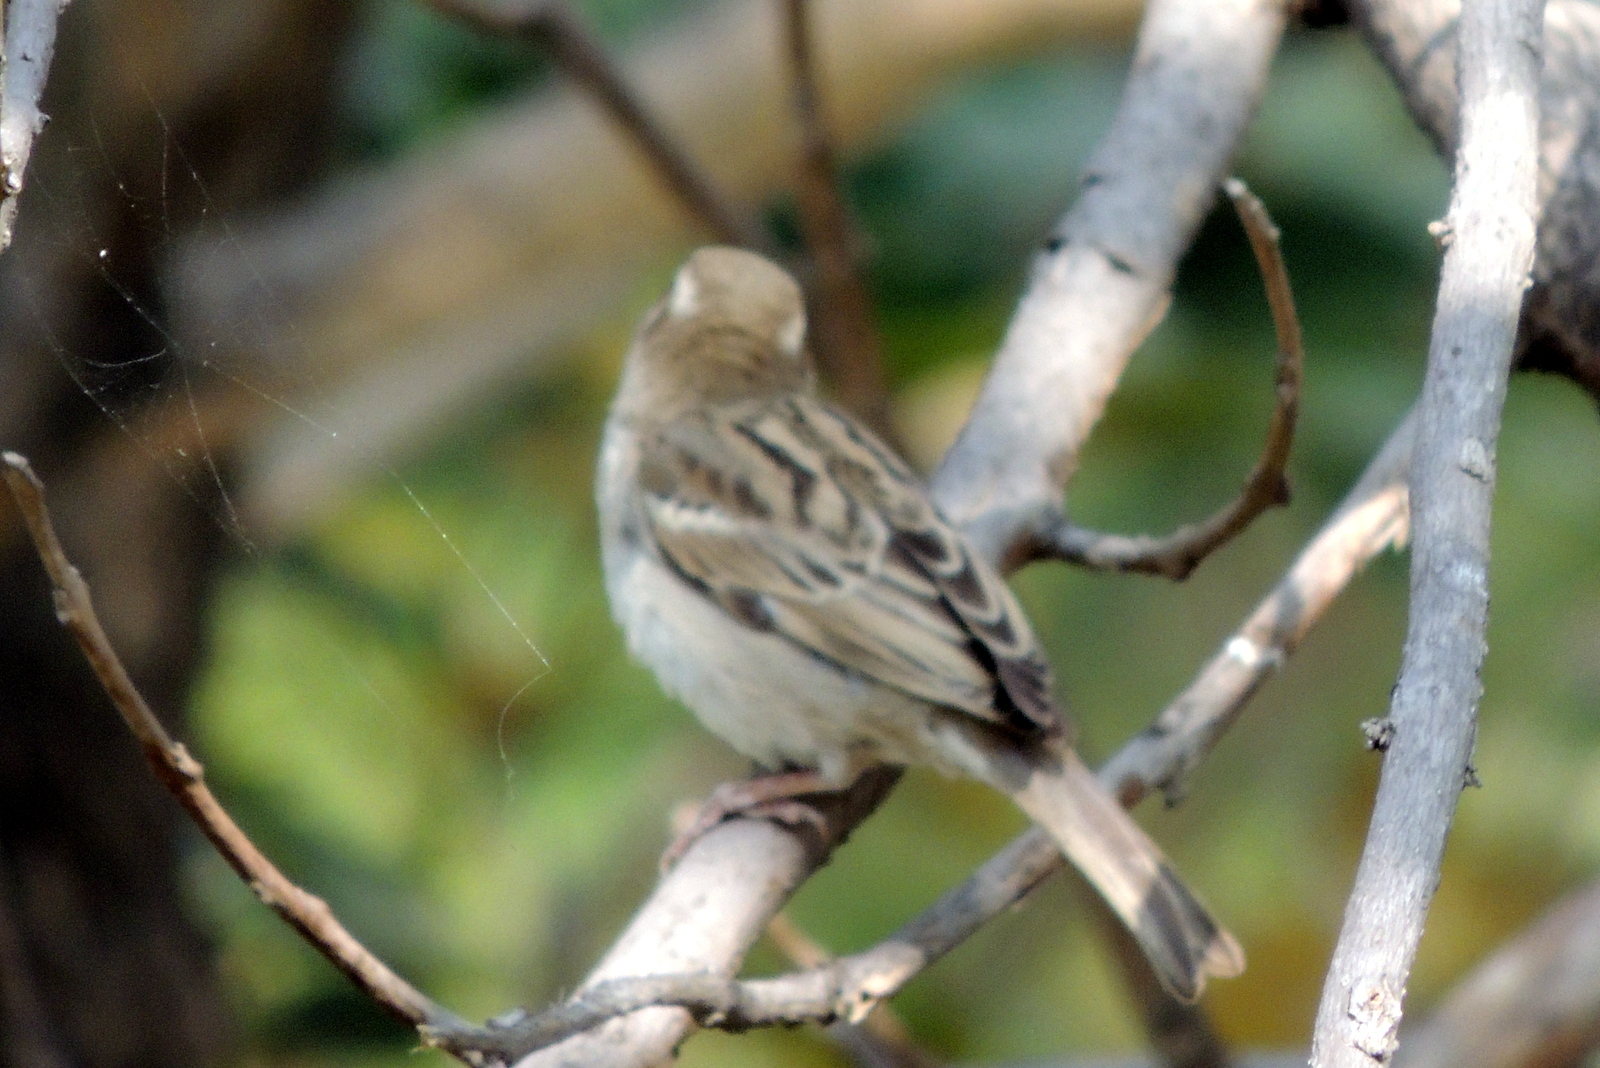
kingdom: Animalia
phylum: Chordata
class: Aves
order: Passeriformes
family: Passeridae
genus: Passer
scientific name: Passer domesticus
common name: House sparrow
